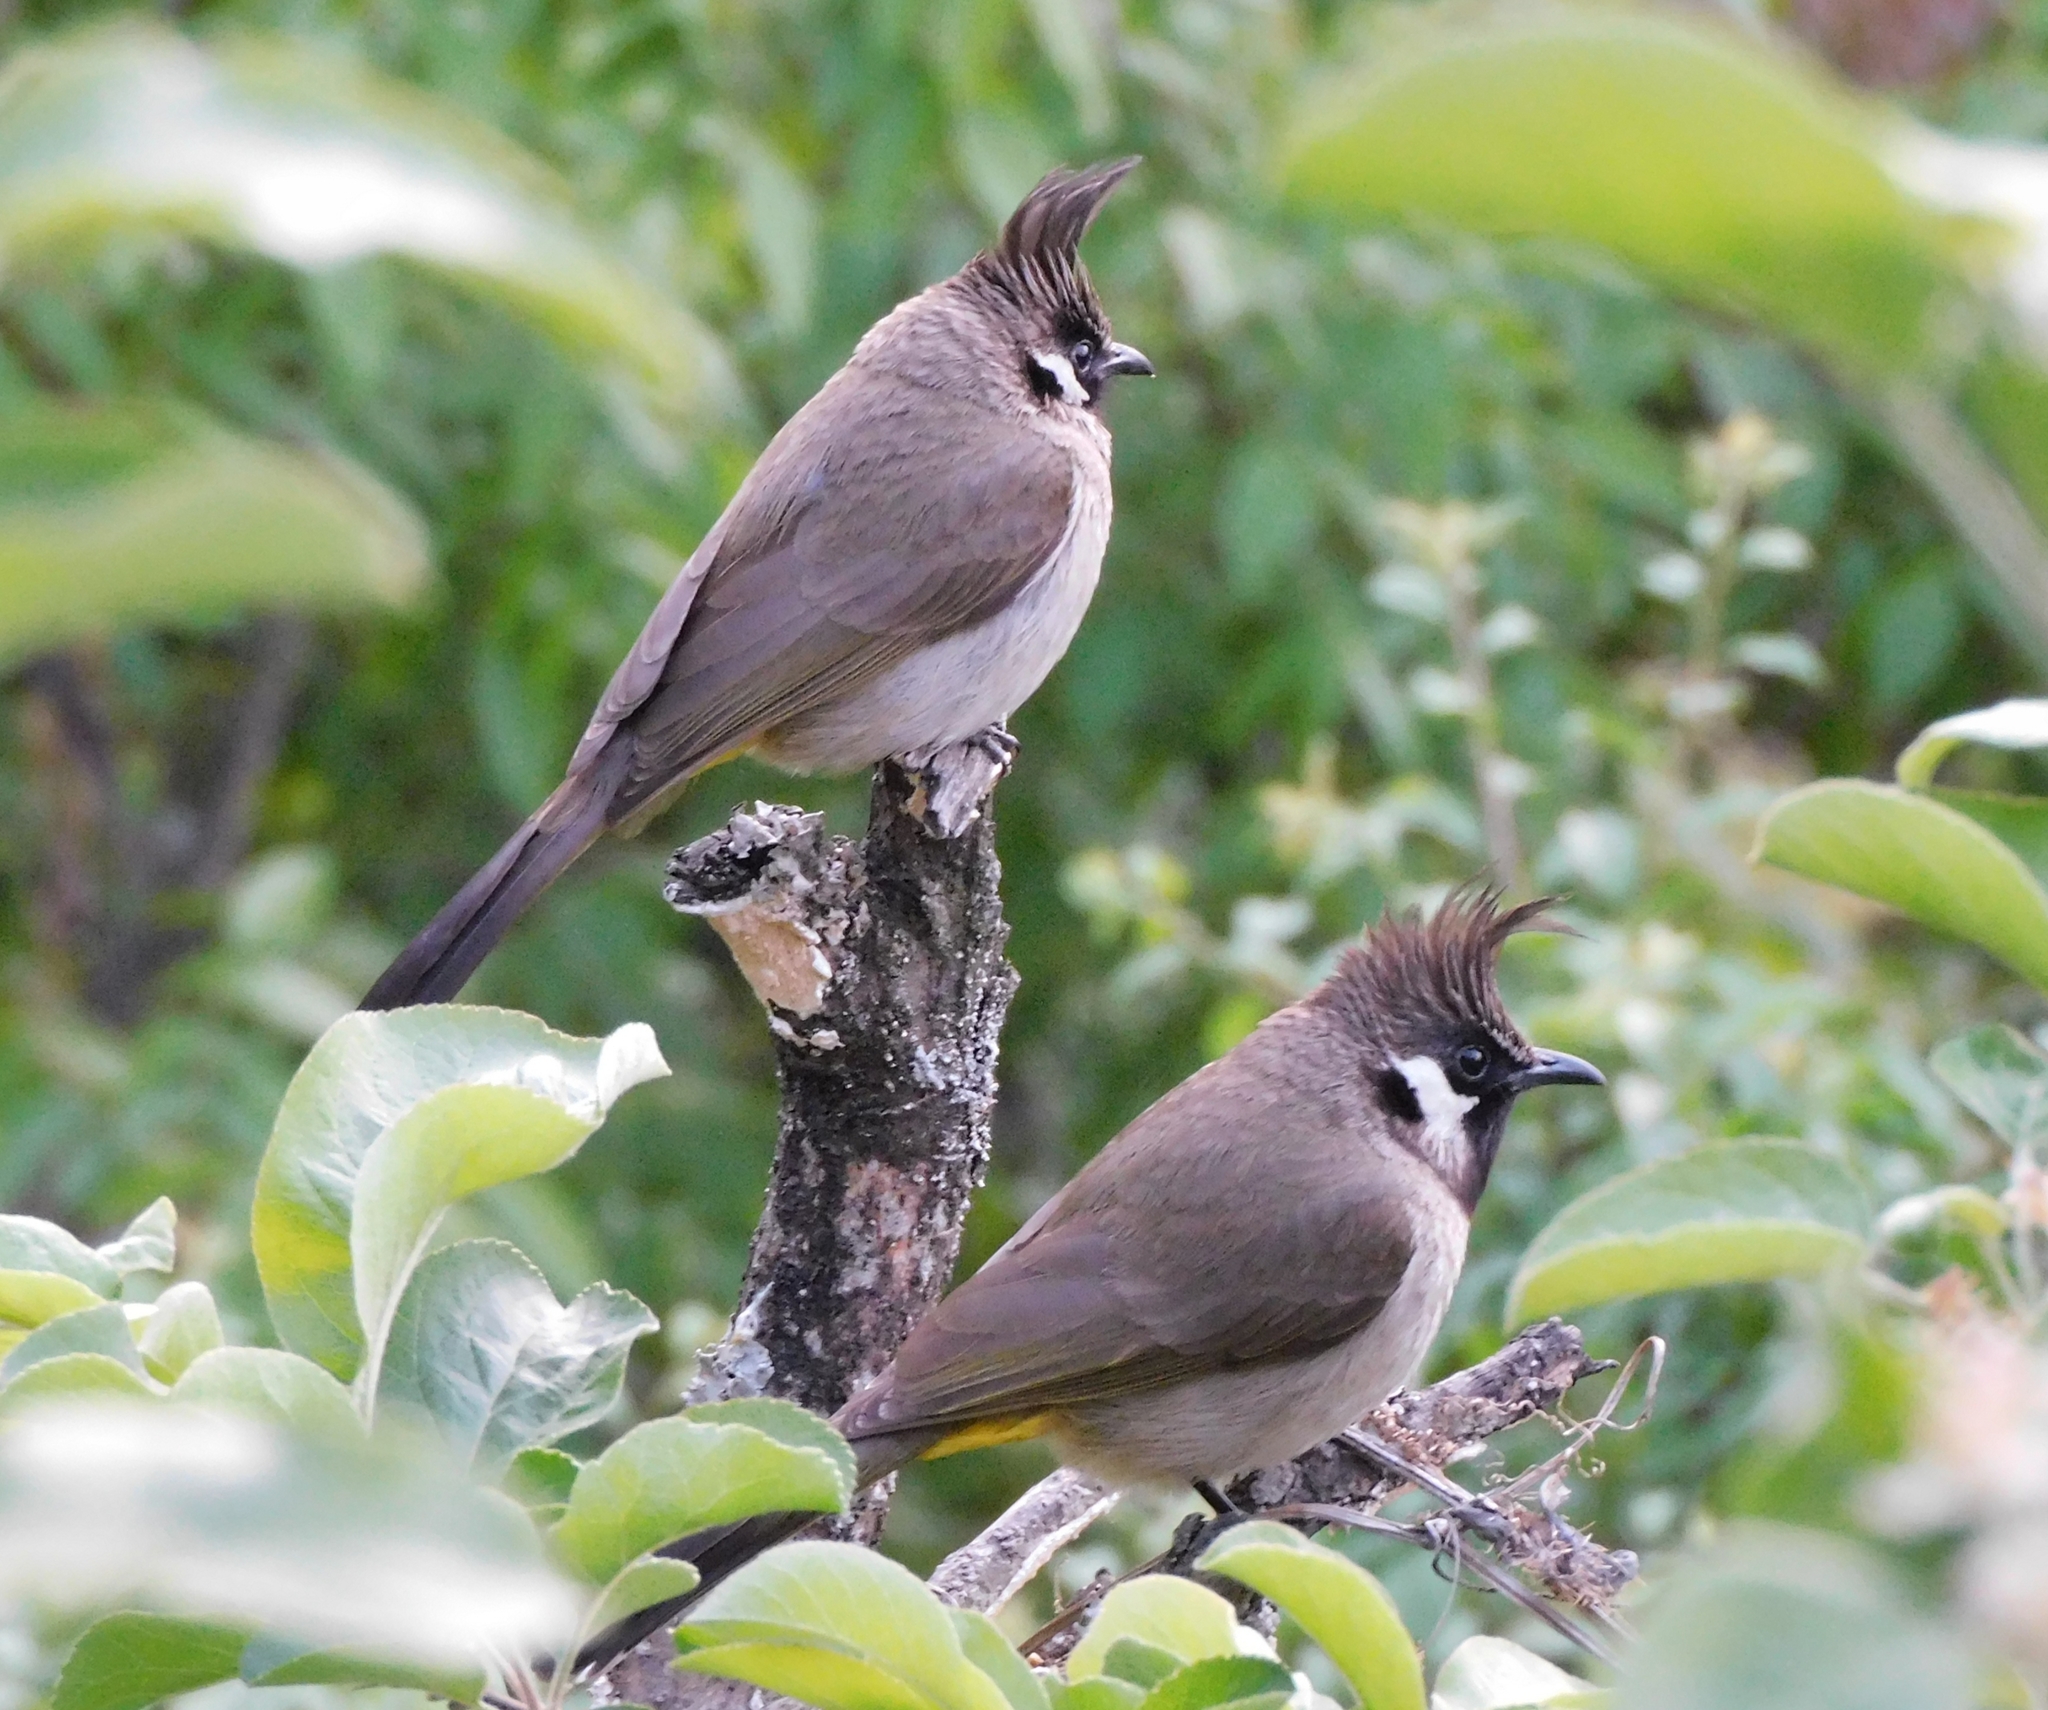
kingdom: Animalia
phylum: Chordata
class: Aves
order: Passeriformes
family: Pycnonotidae
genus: Pycnonotus
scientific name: Pycnonotus leucogenys
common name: Himalayan bulbul
